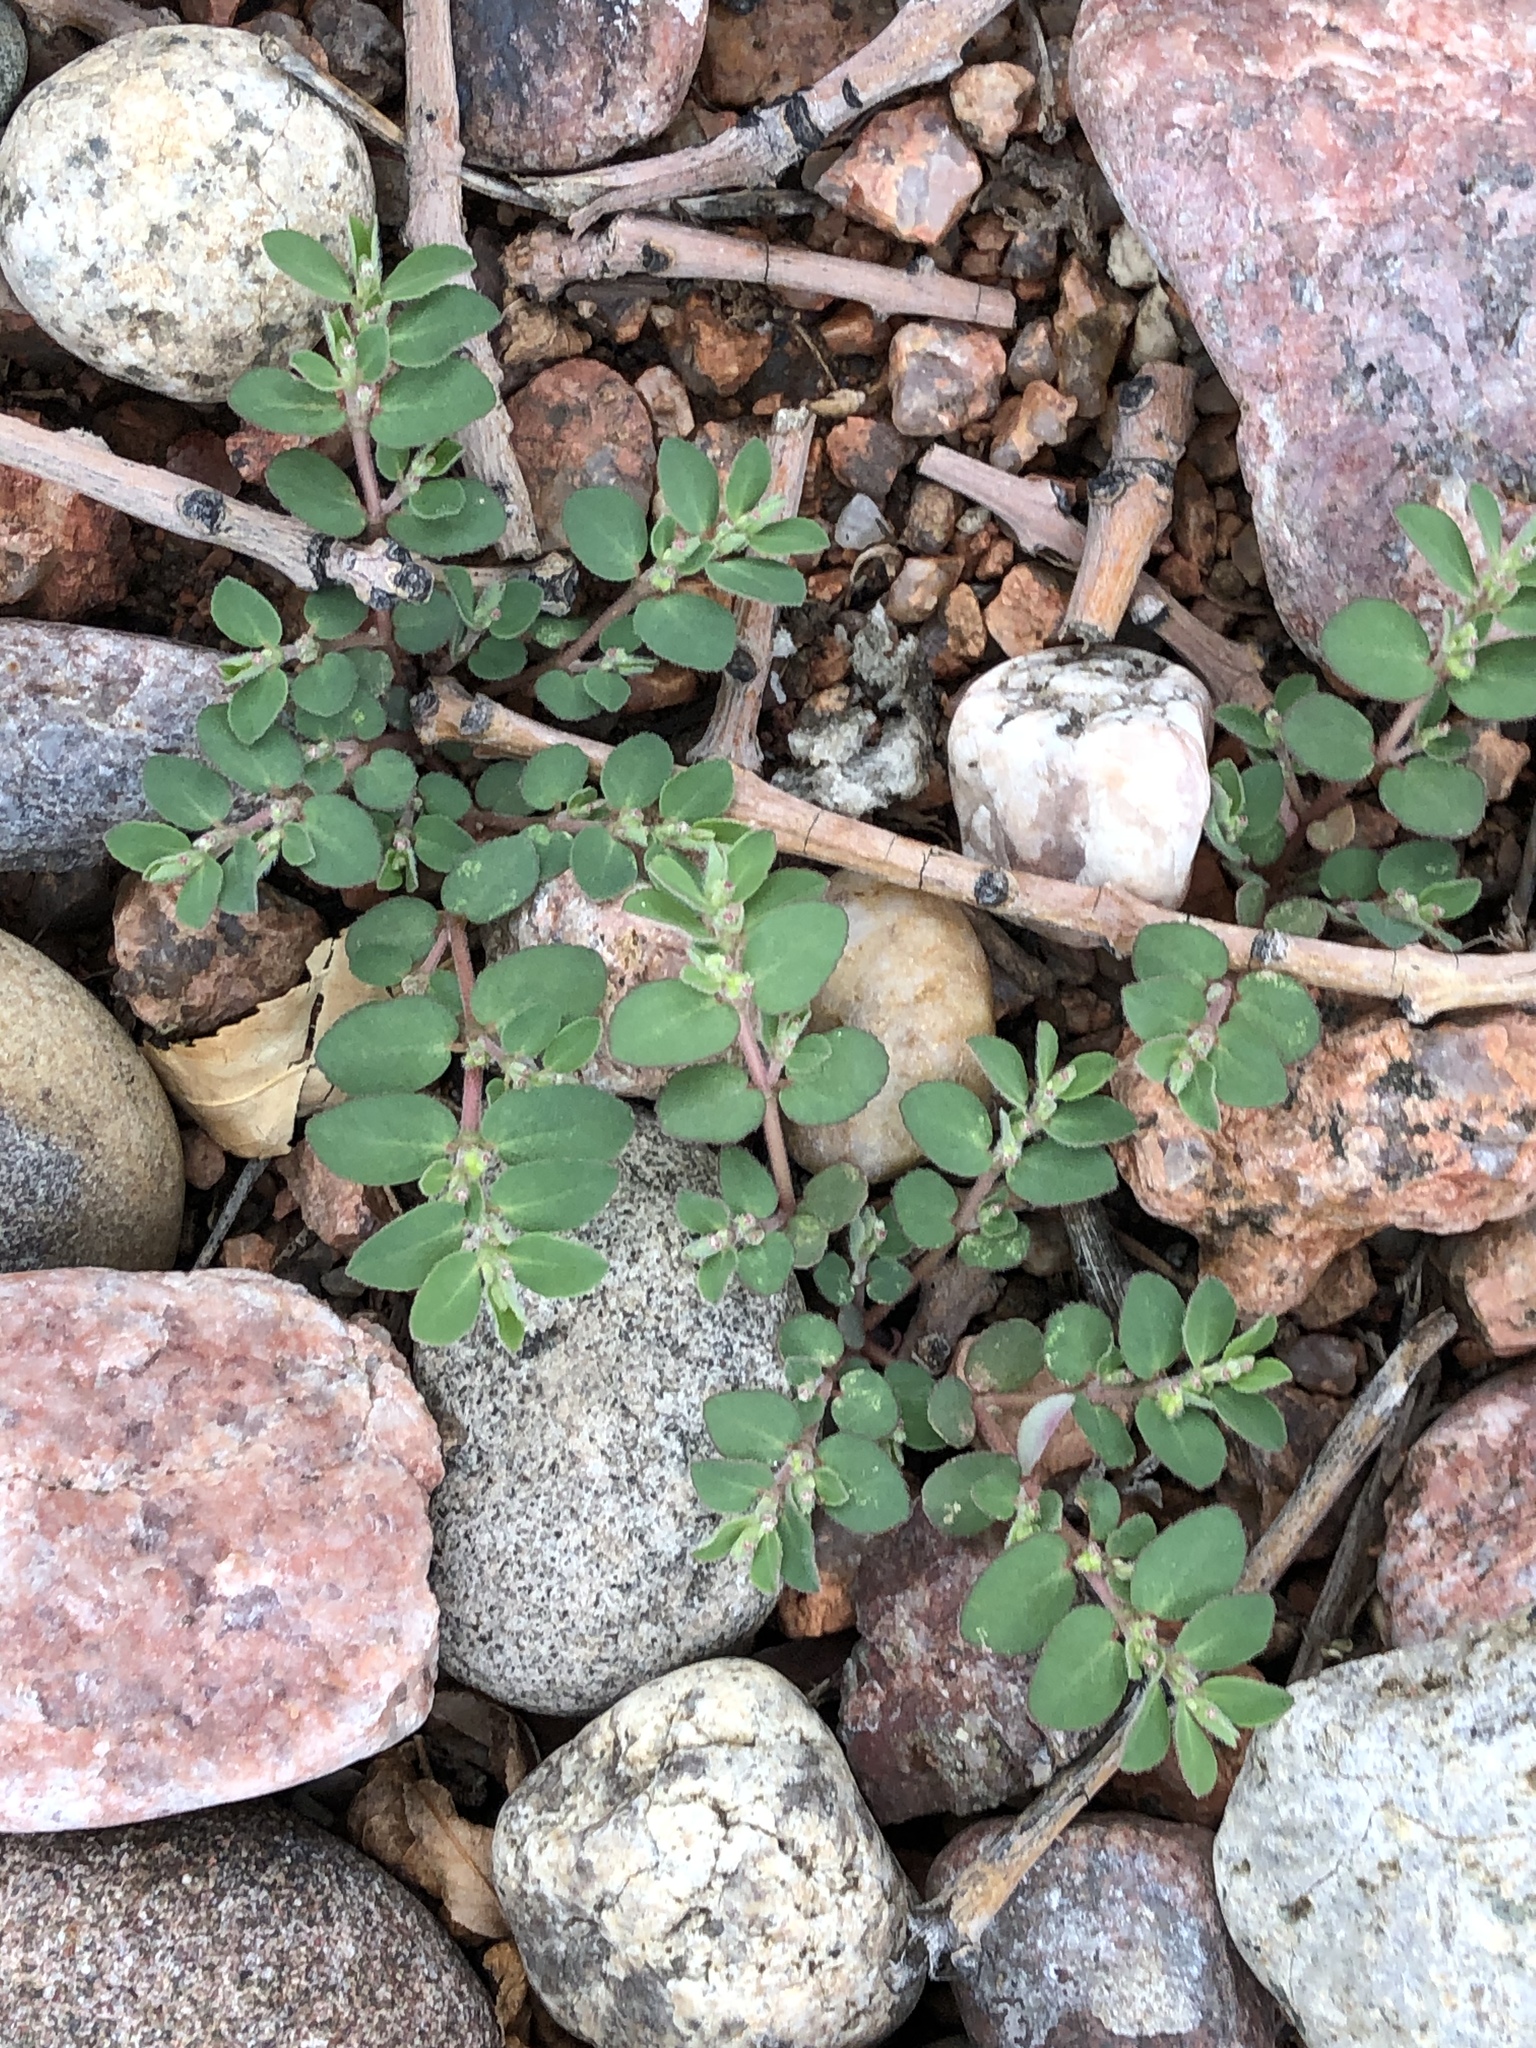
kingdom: Plantae
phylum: Tracheophyta
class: Magnoliopsida
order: Malpighiales
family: Euphorbiaceae
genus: Euphorbia
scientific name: Euphorbia prostrata
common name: Prostrate sandmat
